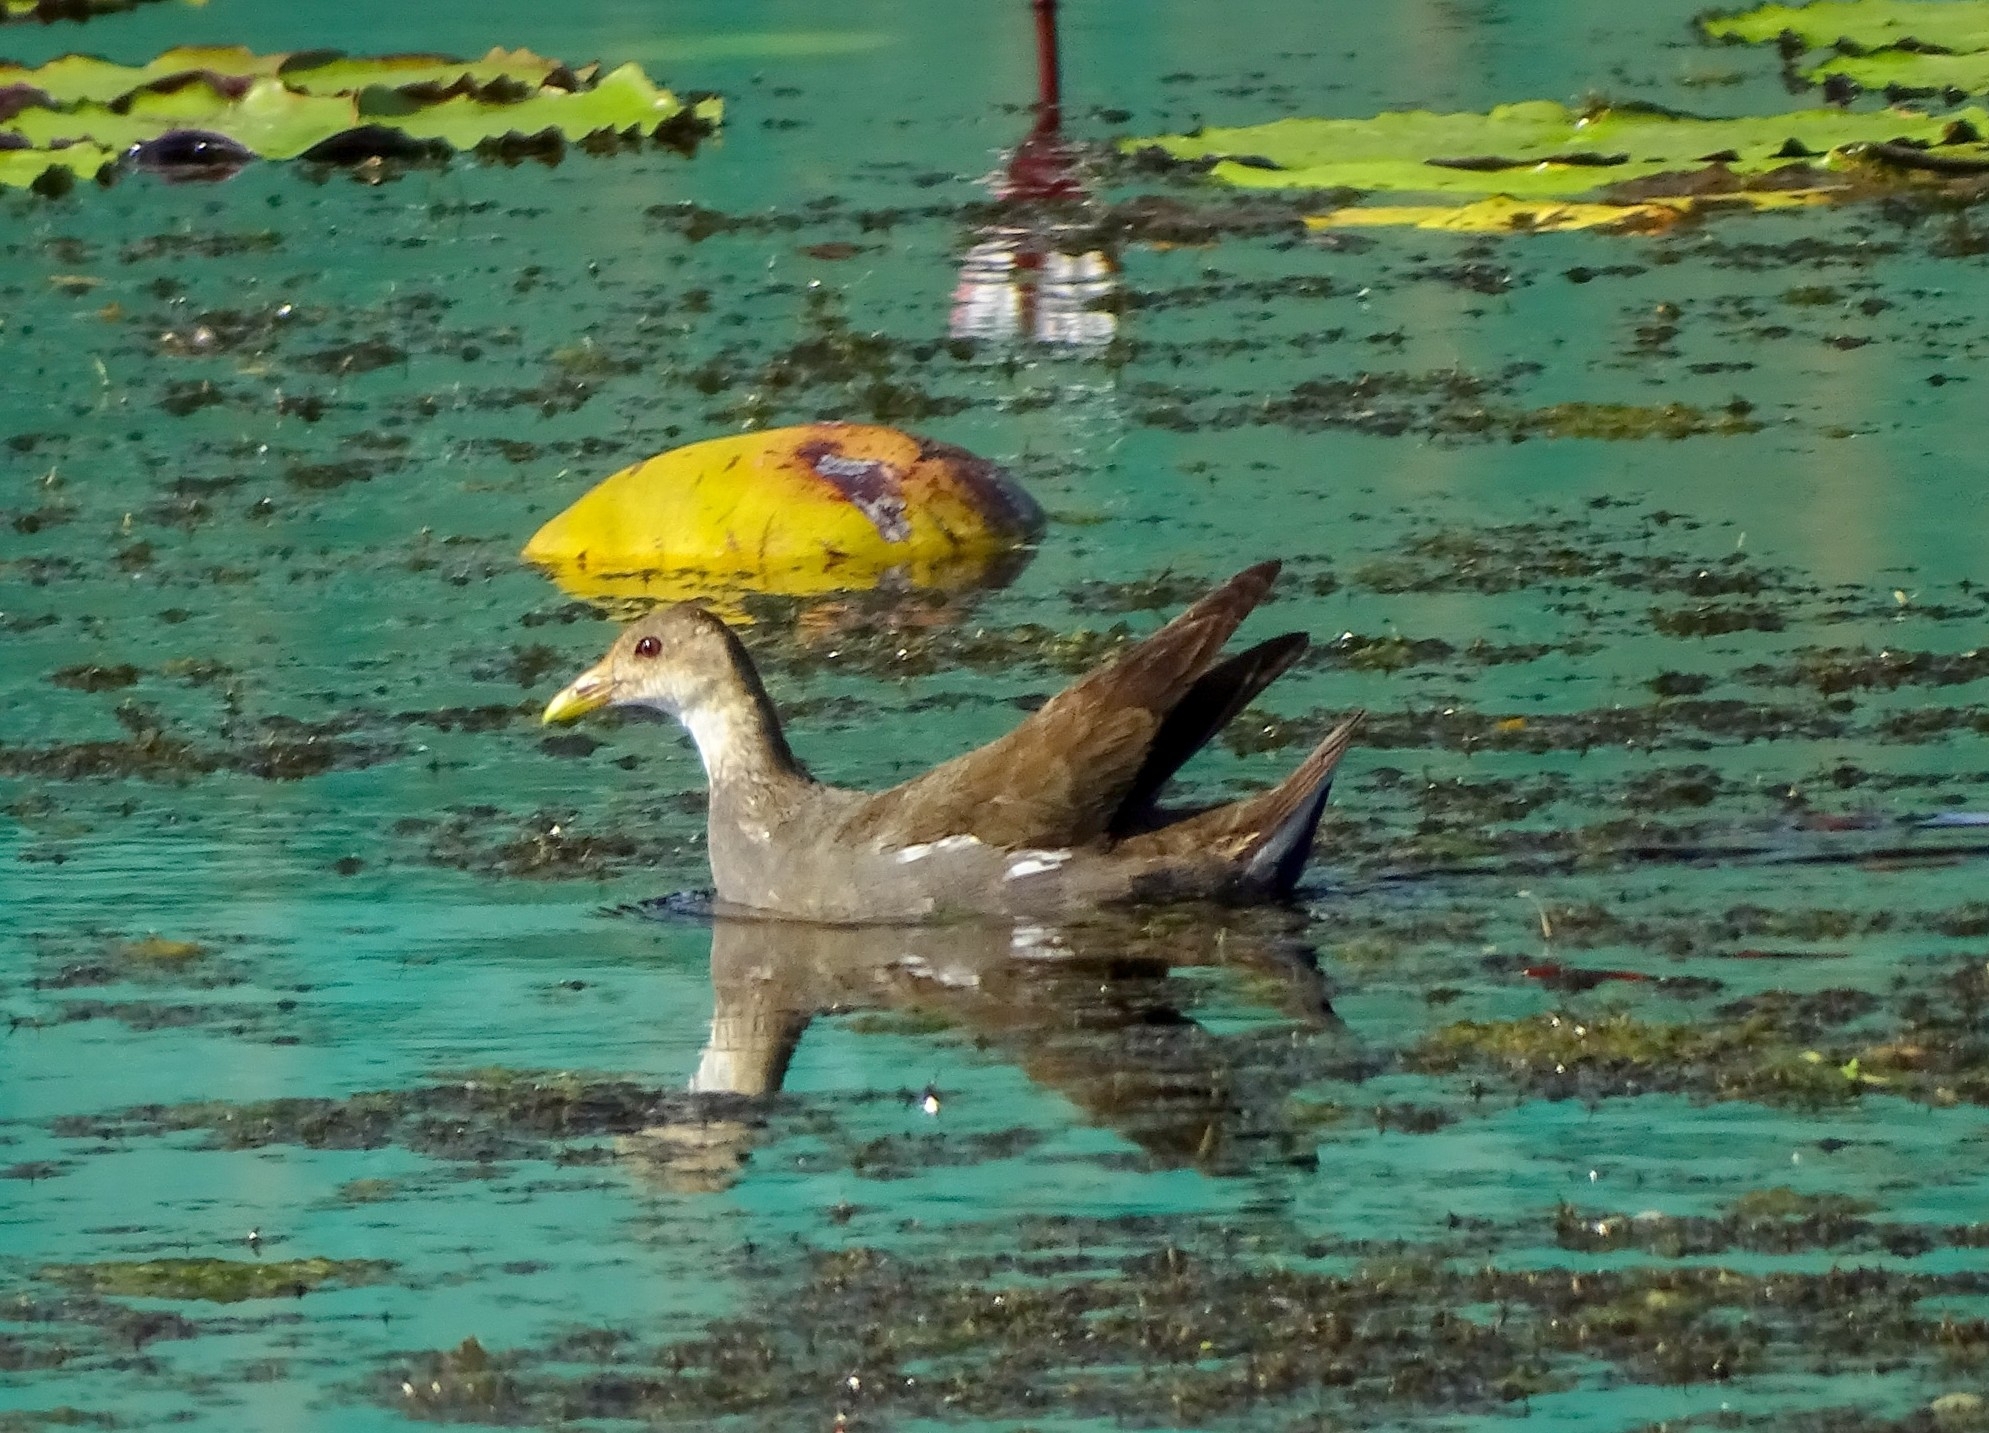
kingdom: Animalia
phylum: Chordata
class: Aves
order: Gruiformes
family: Rallidae
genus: Gallinula
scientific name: Gallinula chloropus
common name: Common moorhen
